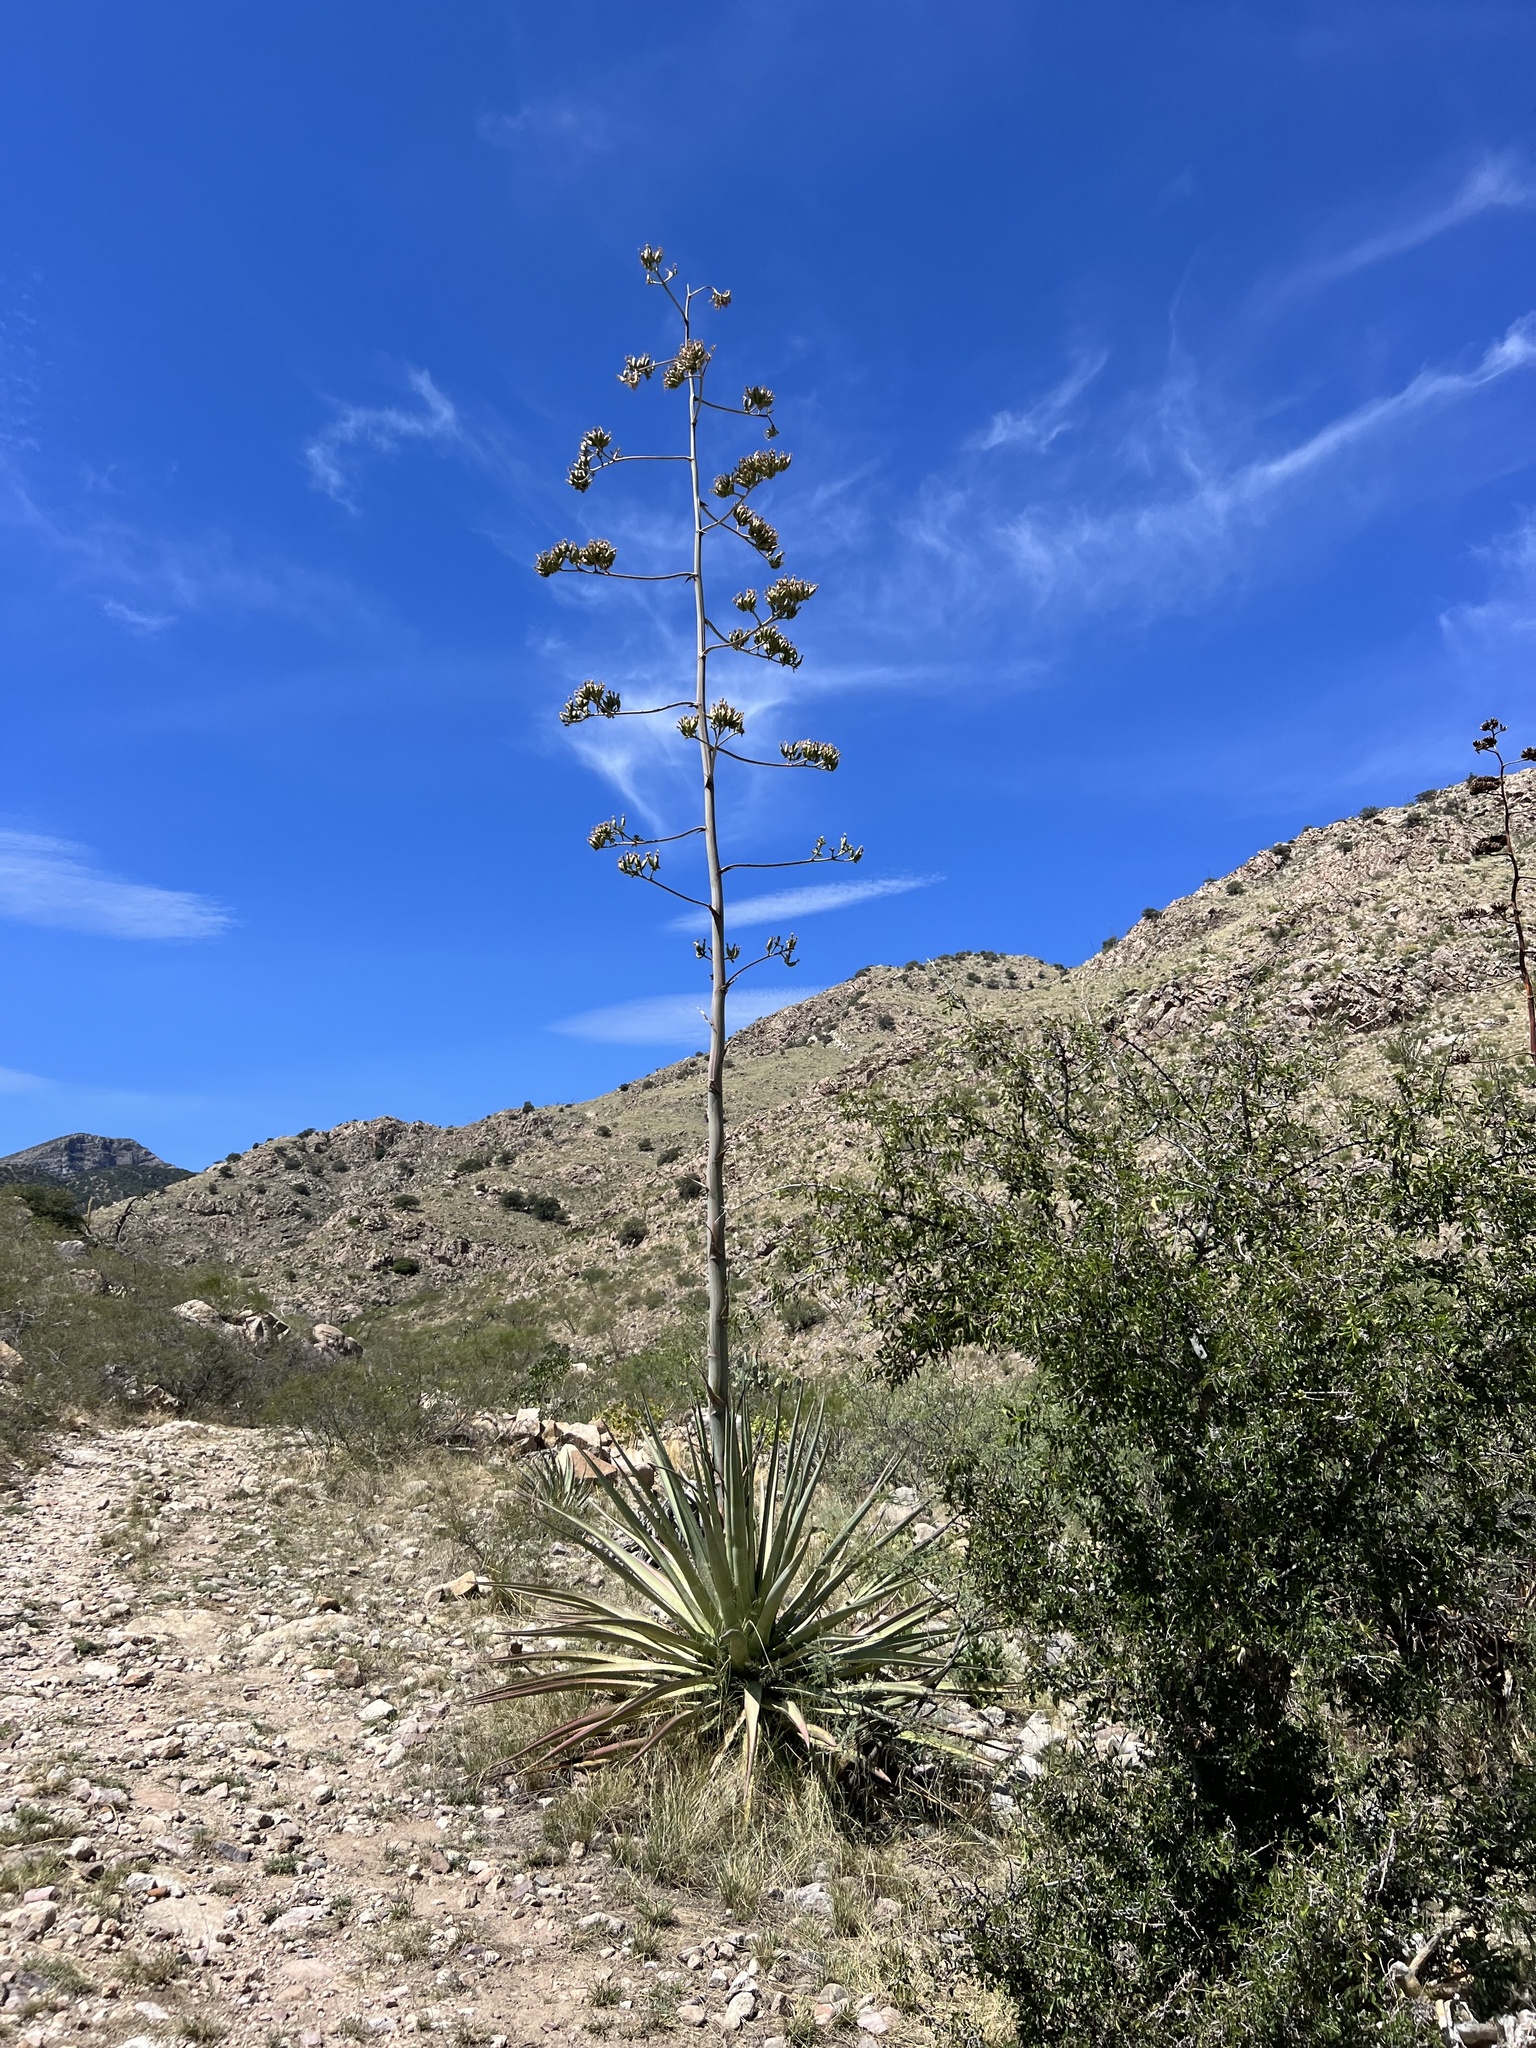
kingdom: Plantae
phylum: Tracheophyta
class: Liliopsida
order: Asparagales
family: Asparagaceae
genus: Agave
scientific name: Agave palmeri
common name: Palmer agave
